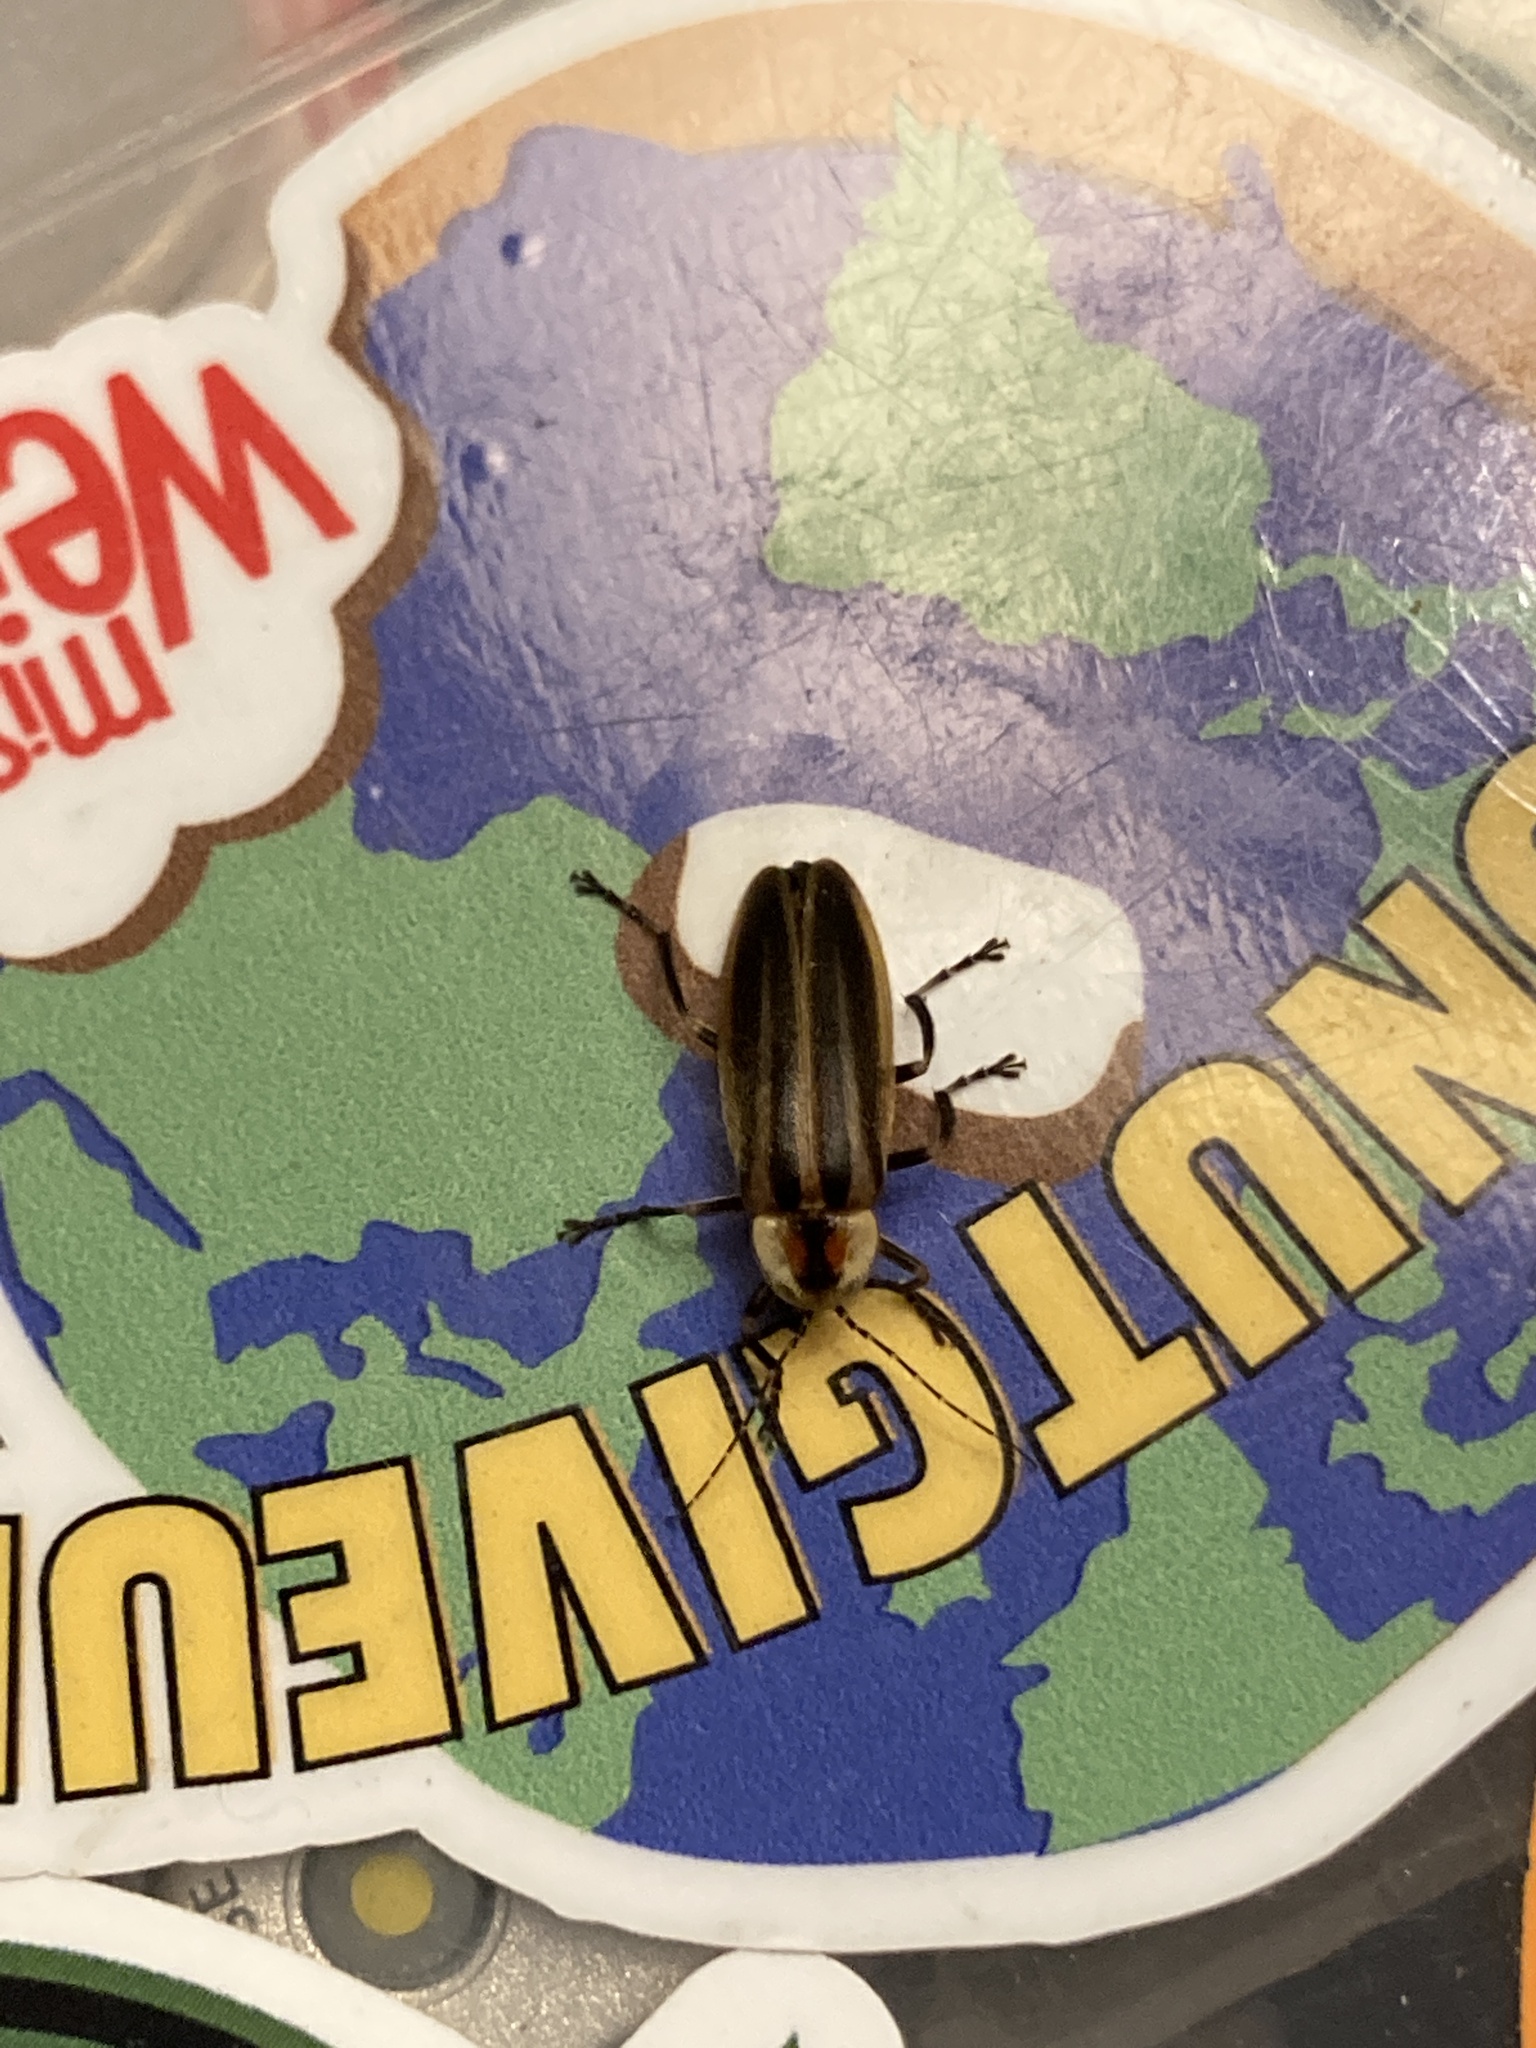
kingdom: Animalia
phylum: Arthropoda
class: Insecta
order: Coleoptera
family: Lampyridae
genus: Photuris
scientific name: Photuris
